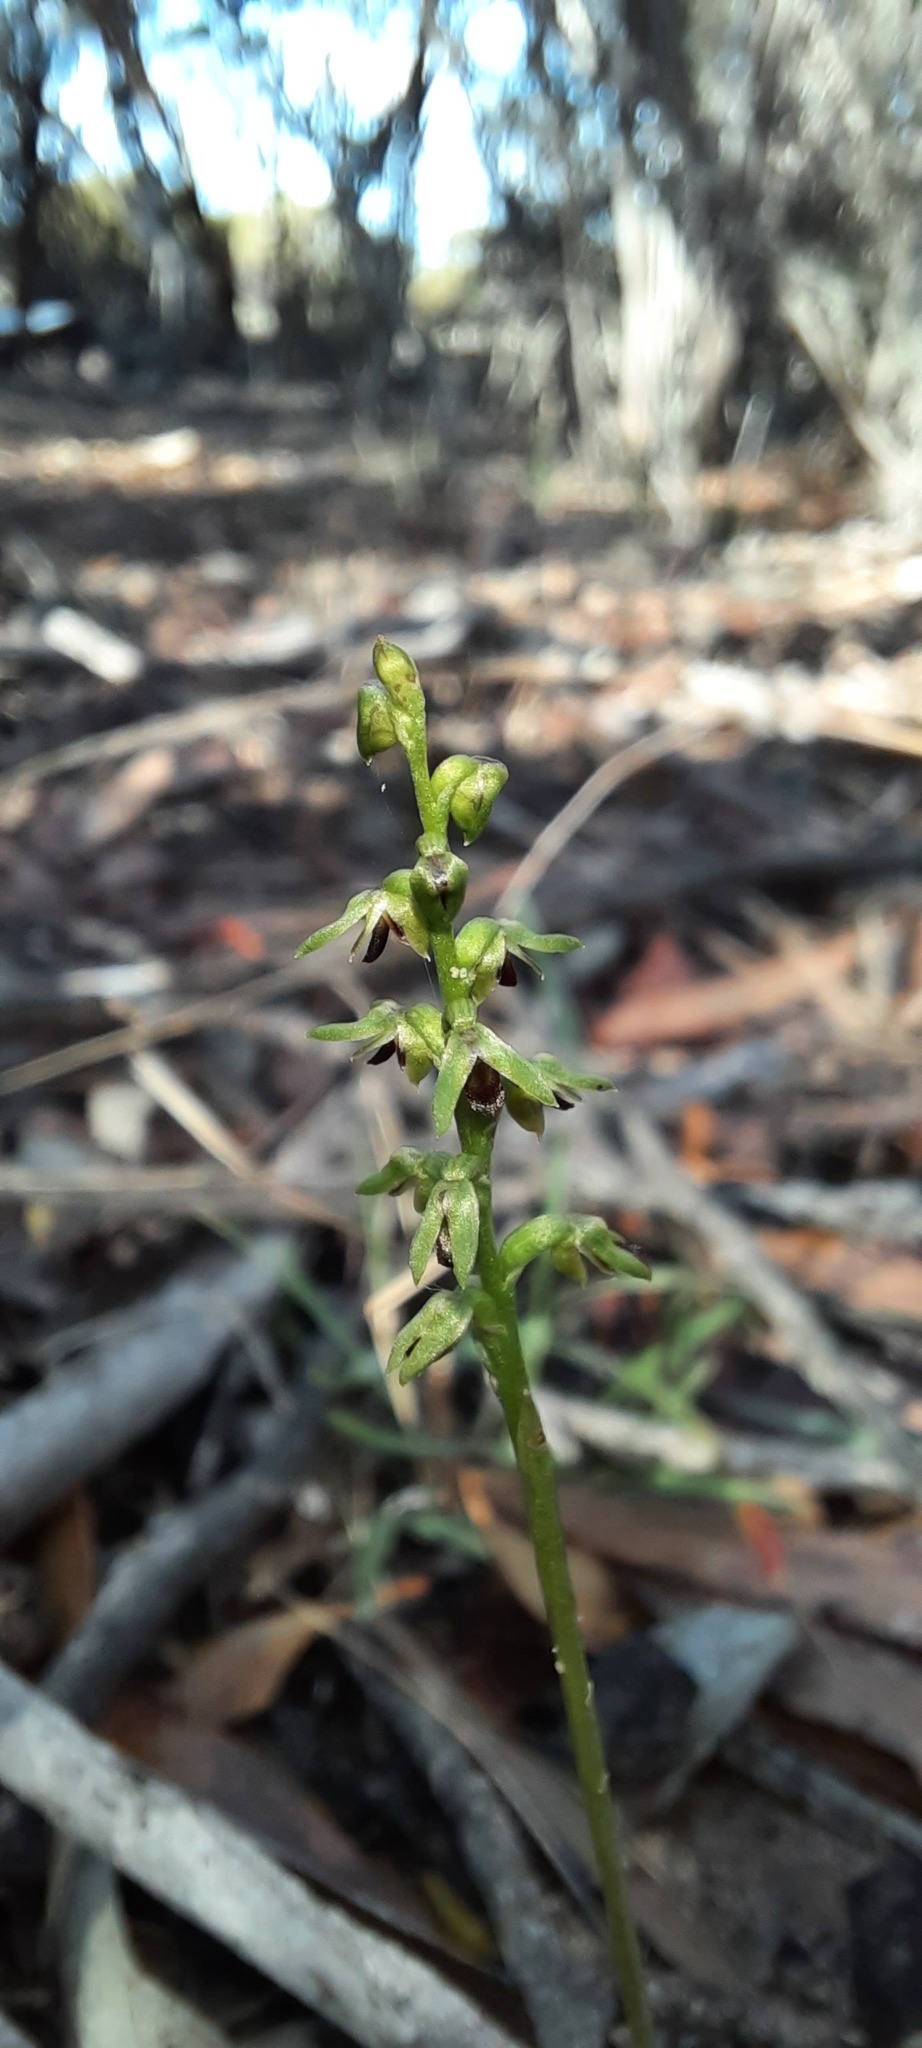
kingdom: Plantae
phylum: Tracheophyta
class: Liliopsida
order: Asparagales
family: Orchidaceae
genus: Genoplesium
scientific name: Genoplesium
